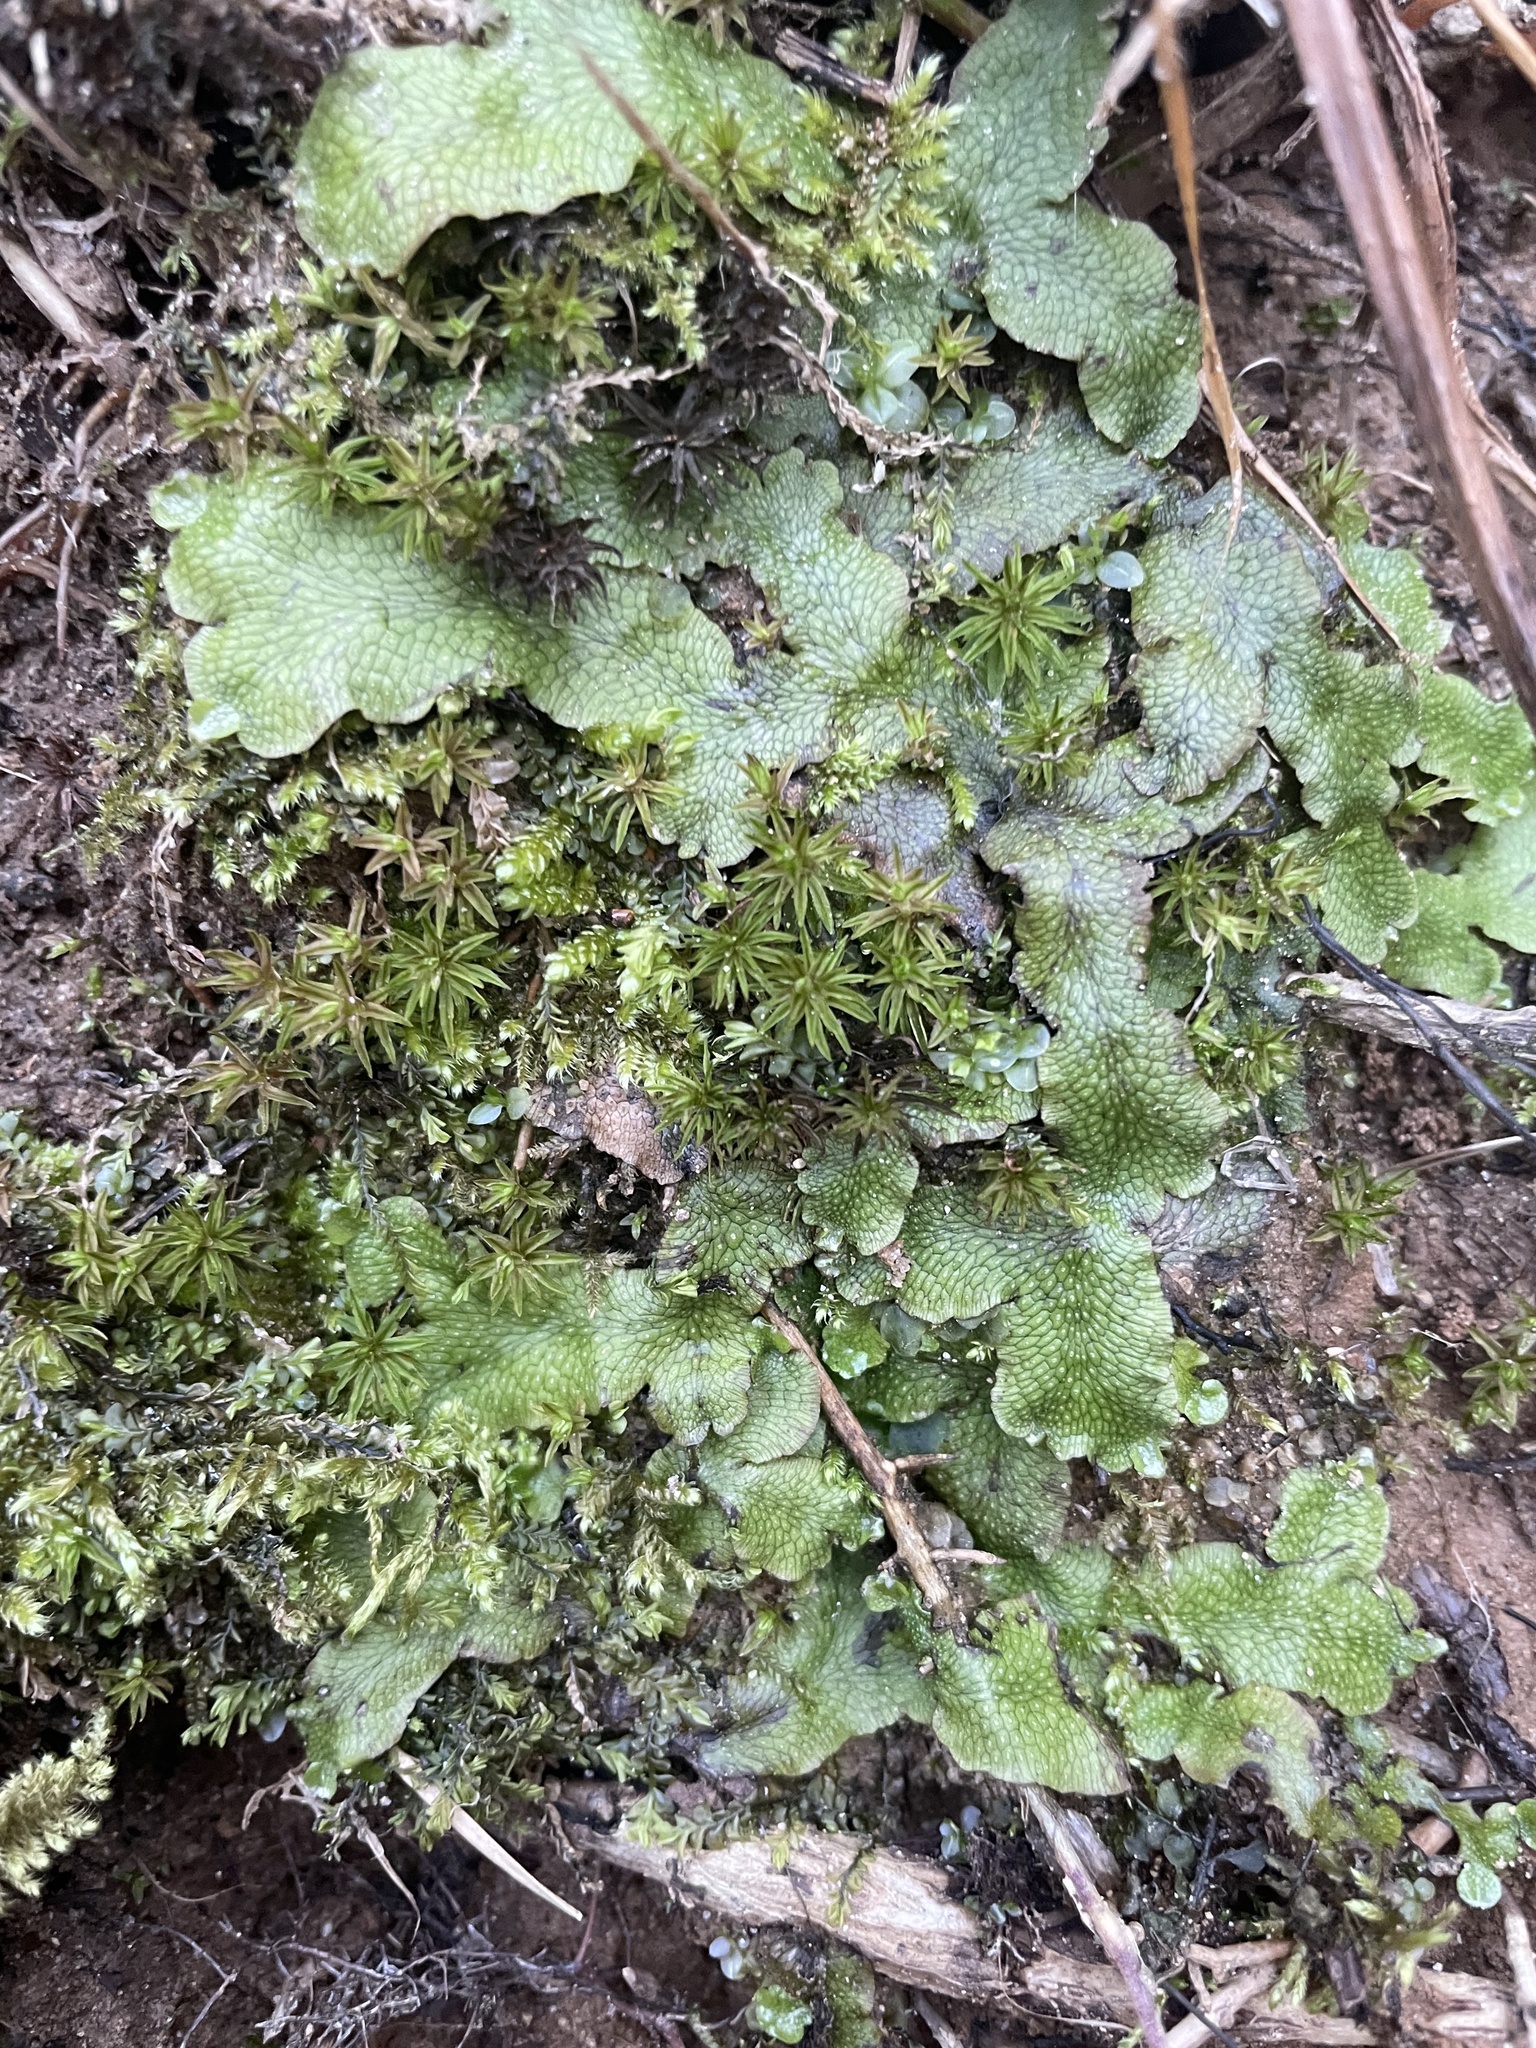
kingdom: Plantae
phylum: Marchantiophyta
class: Marchantiopsida
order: Marchantiales
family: Conocephalaceae
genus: Conocephalum
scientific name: Conocephalum salebrosum
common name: Cat-tongue liverwort
